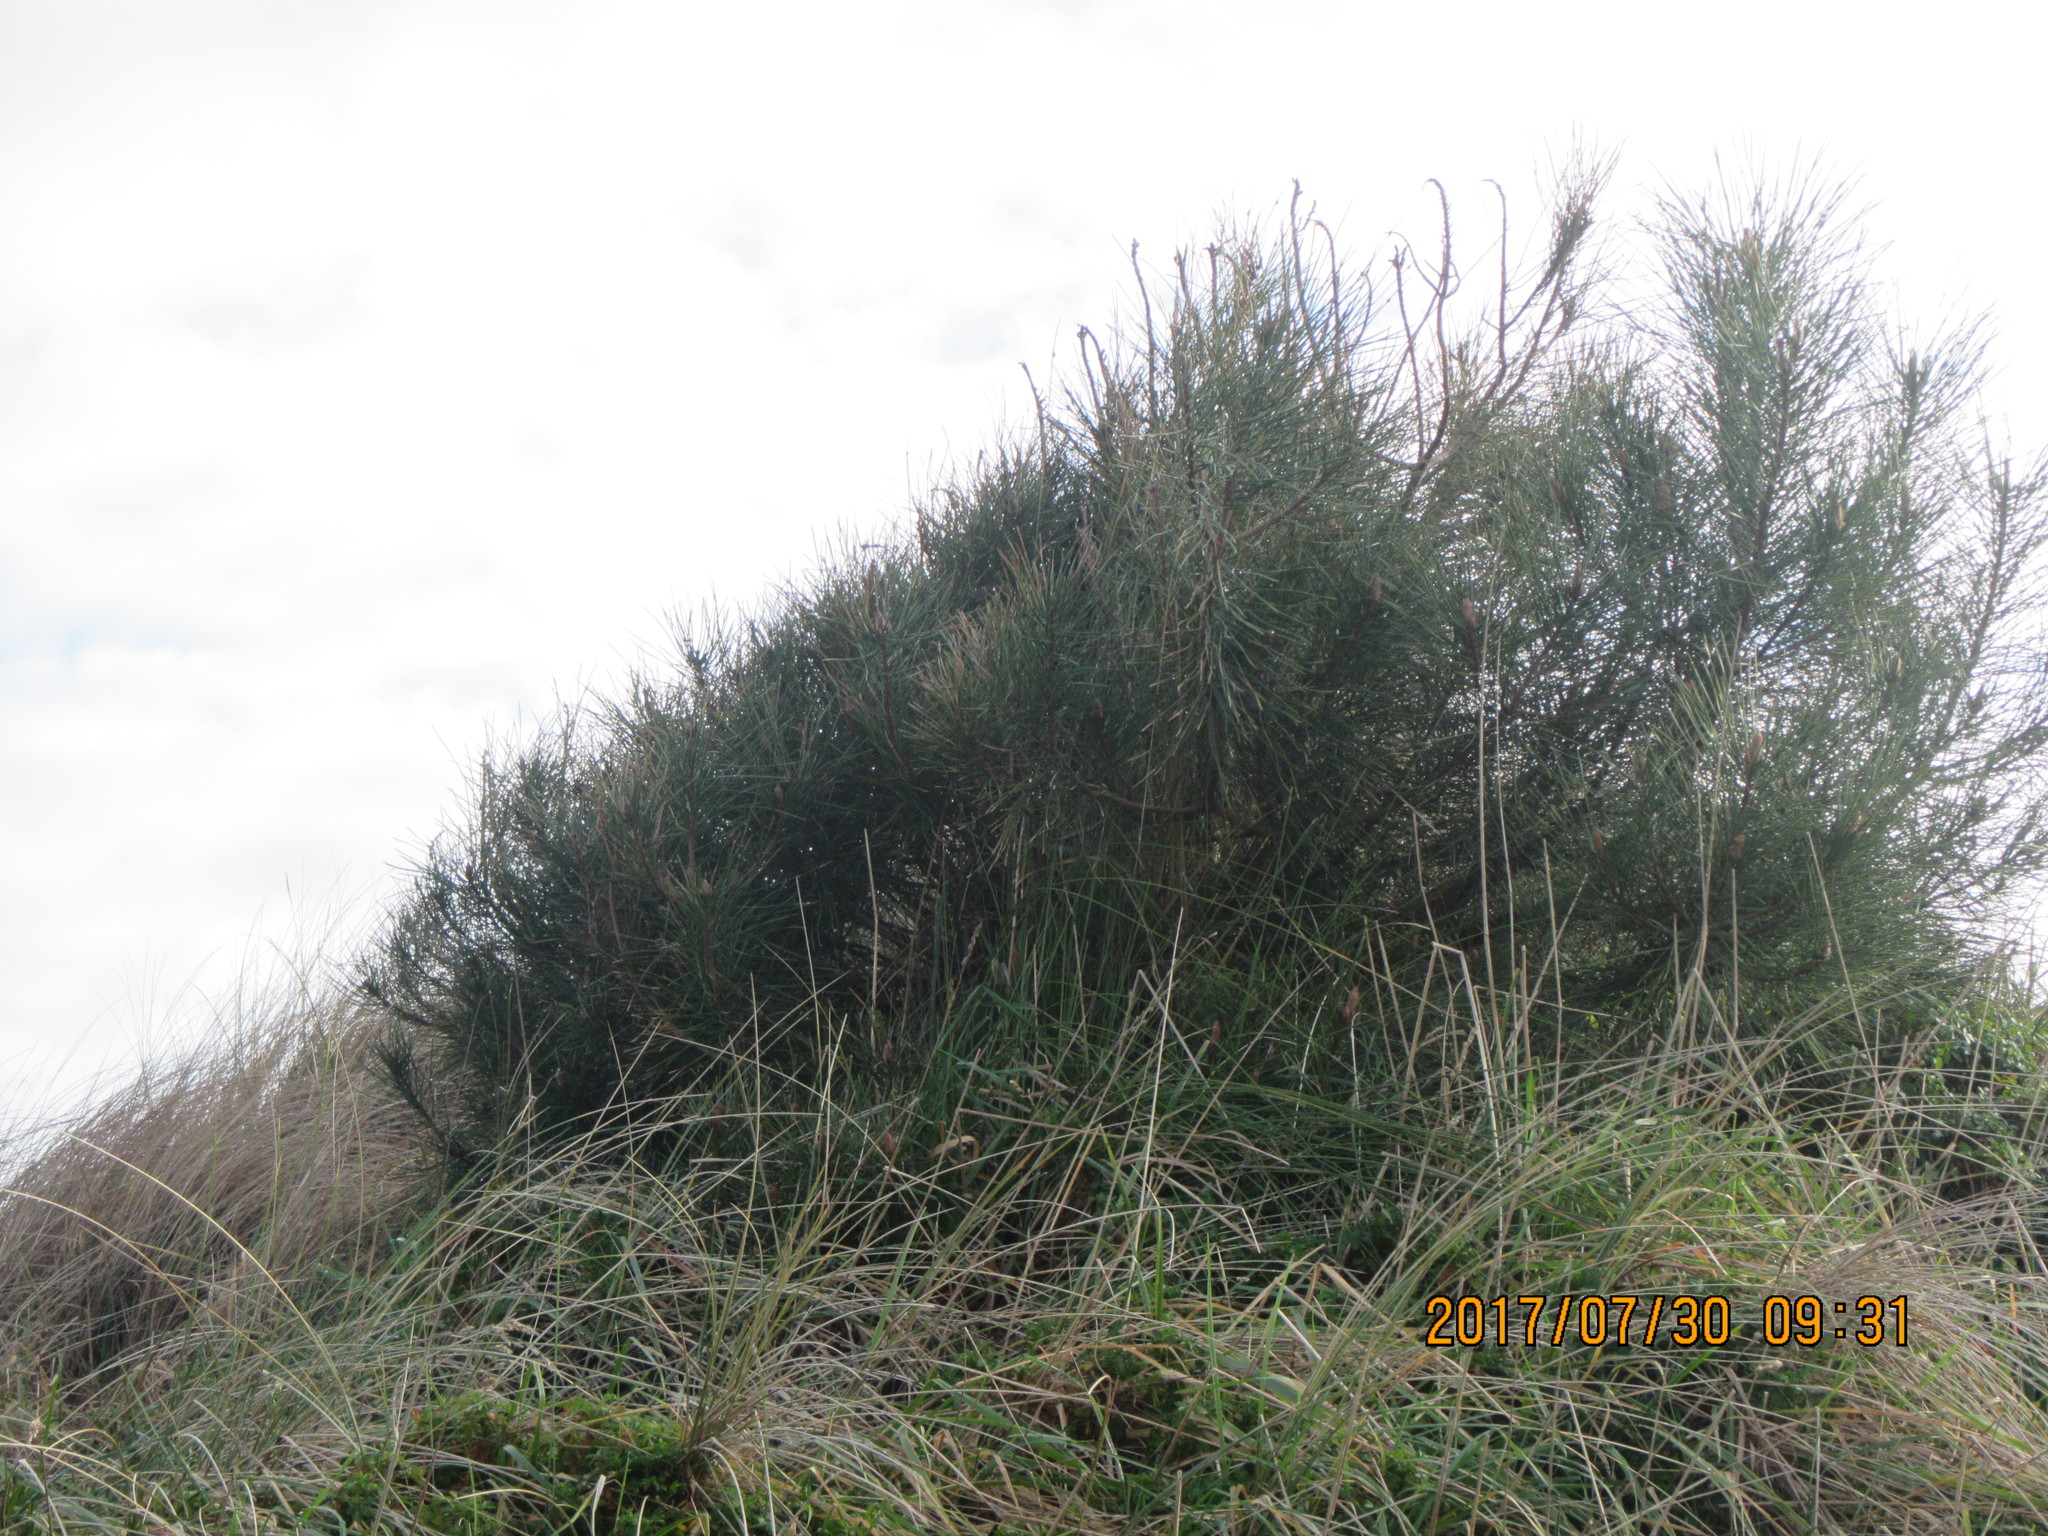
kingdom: Plantae
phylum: Tracheophyta
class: Pinopsida
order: Pinales
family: Pinaceae
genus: Pinus
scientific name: Pinus radiata
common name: Monterey pine
